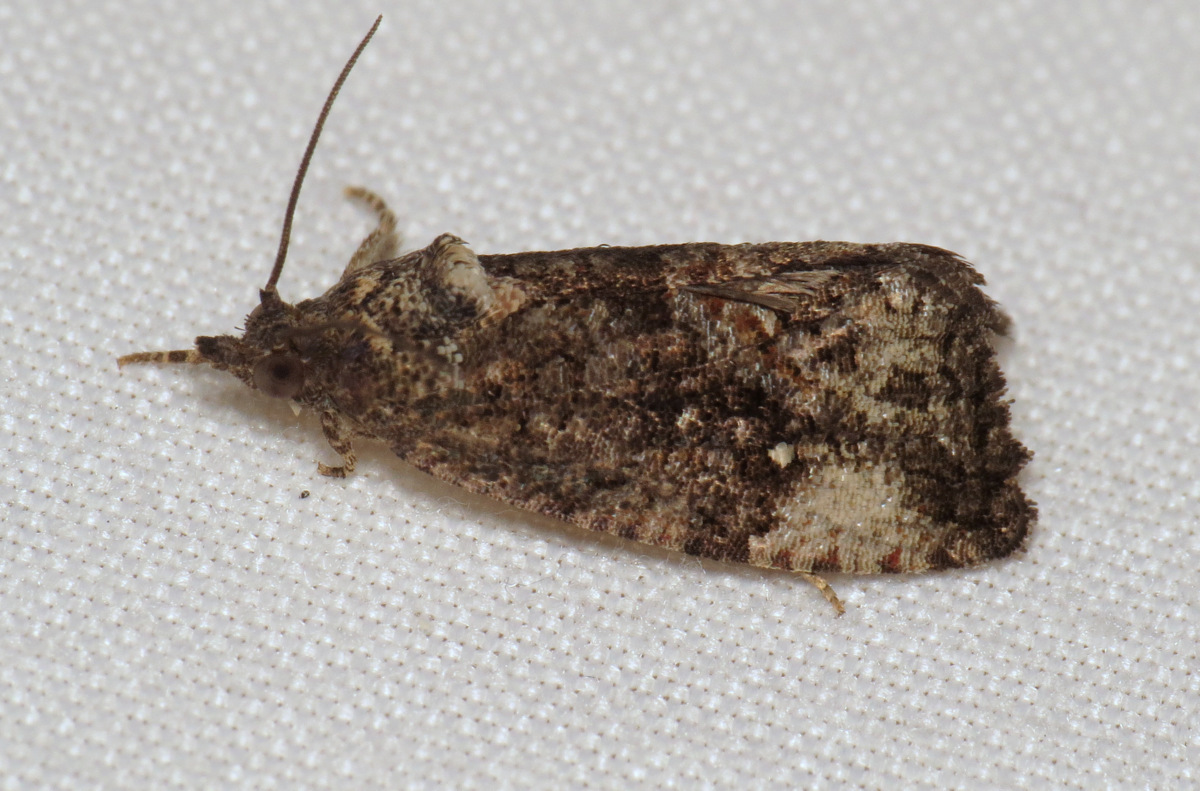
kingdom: Animalia
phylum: Arthropoda
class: Insecta
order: Lepidoptera
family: Tortricidae
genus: Gymnandrosoma
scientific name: Gymnandrosoma punctidiscanum
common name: Dotted ecdytolopha moth
